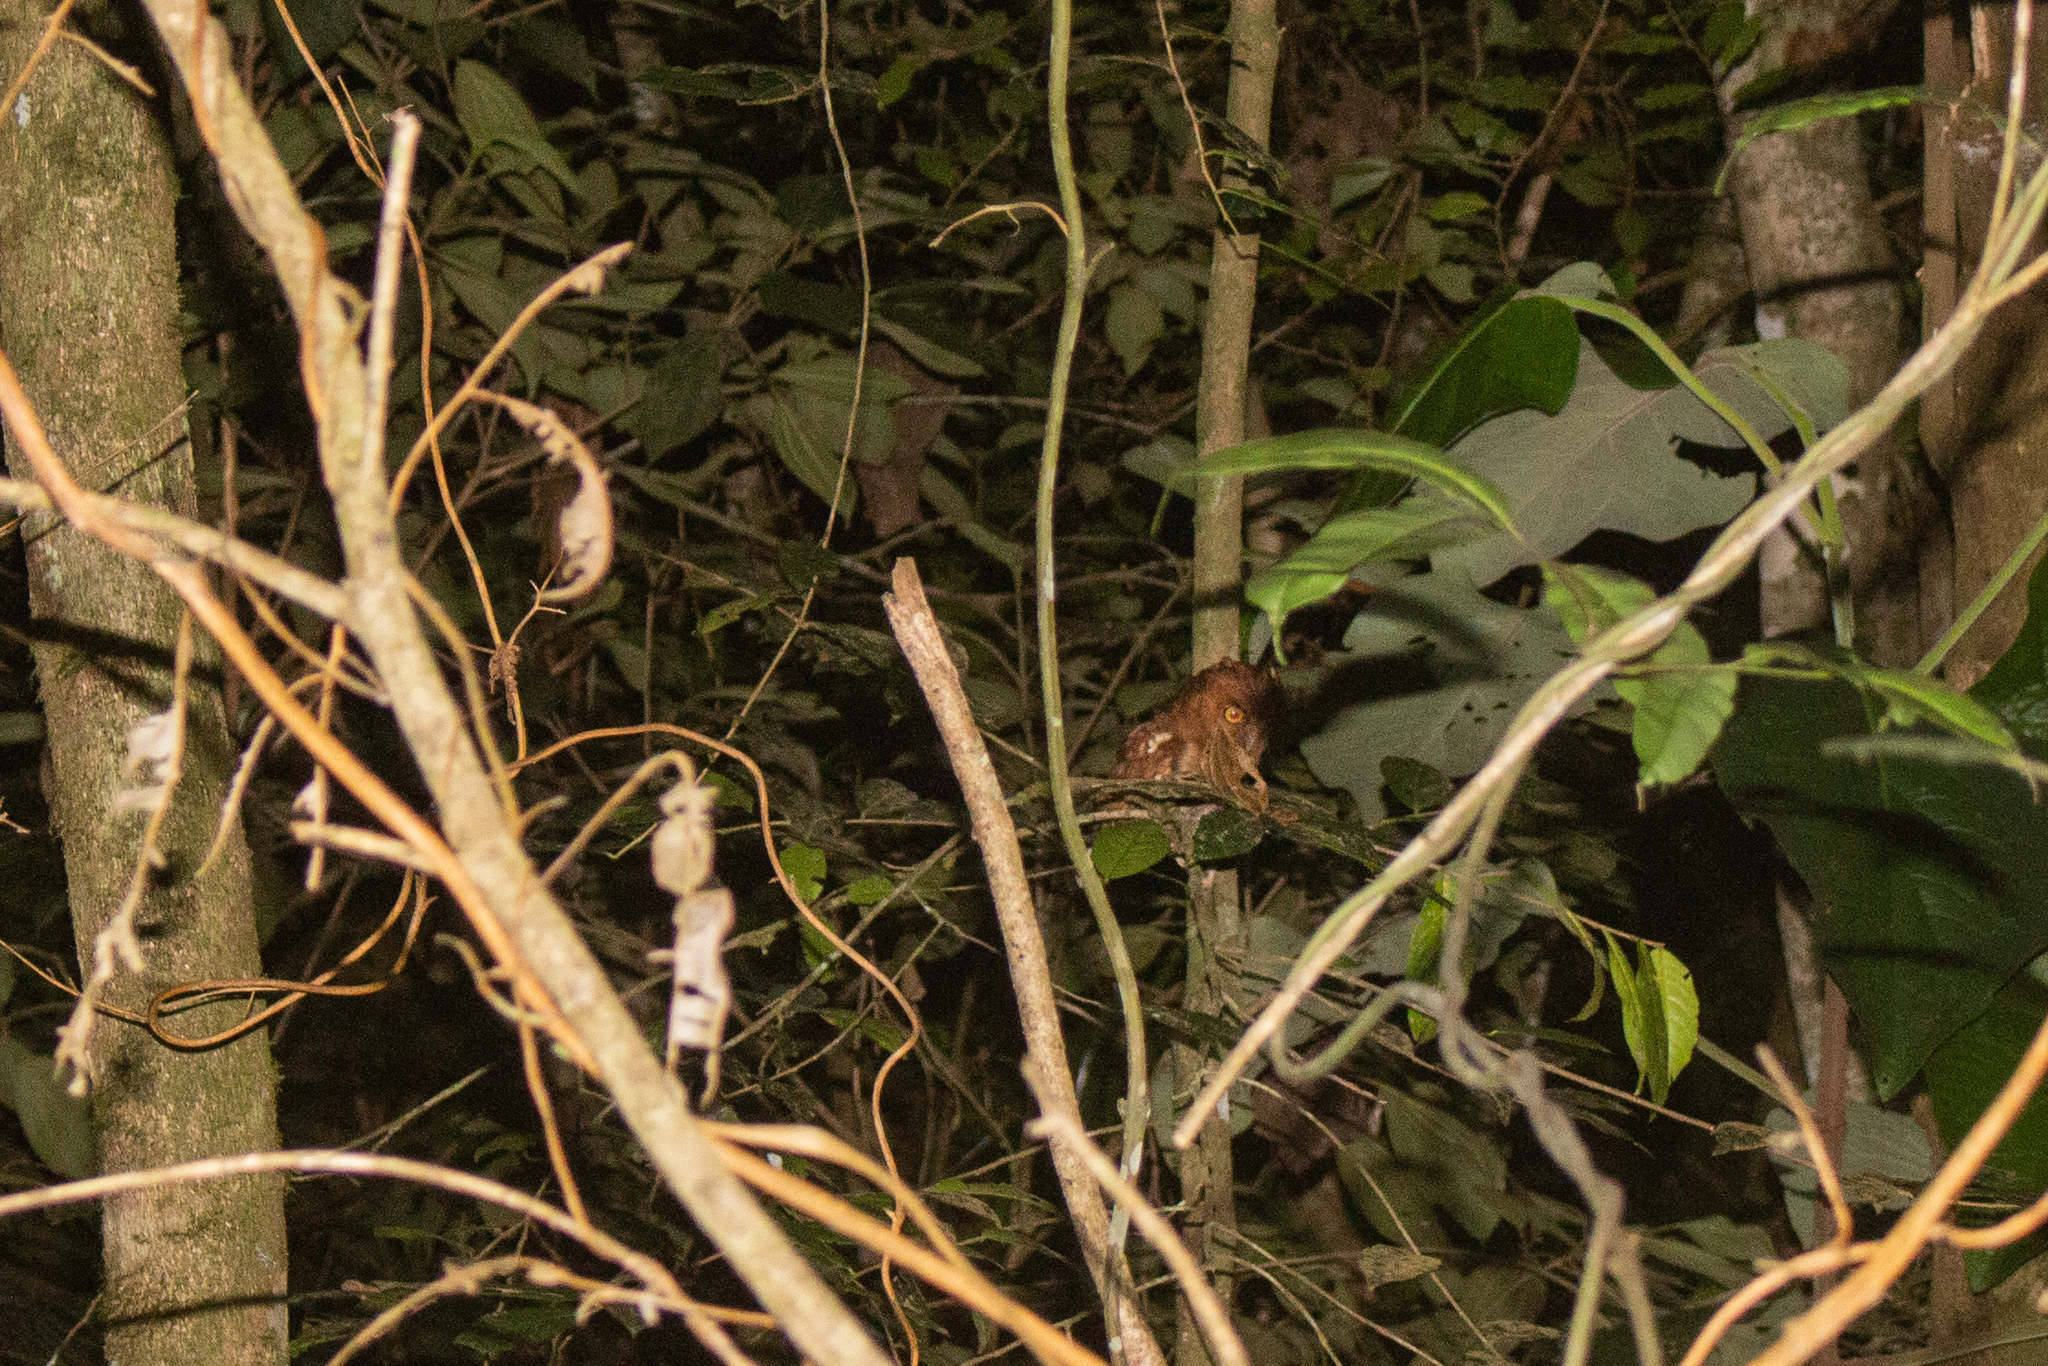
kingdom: Animalia
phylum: Chordata
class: Aves
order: Strigiformes
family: Strigidae
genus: Megascops
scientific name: Megascops gilesi
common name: Santa marta screech owl
